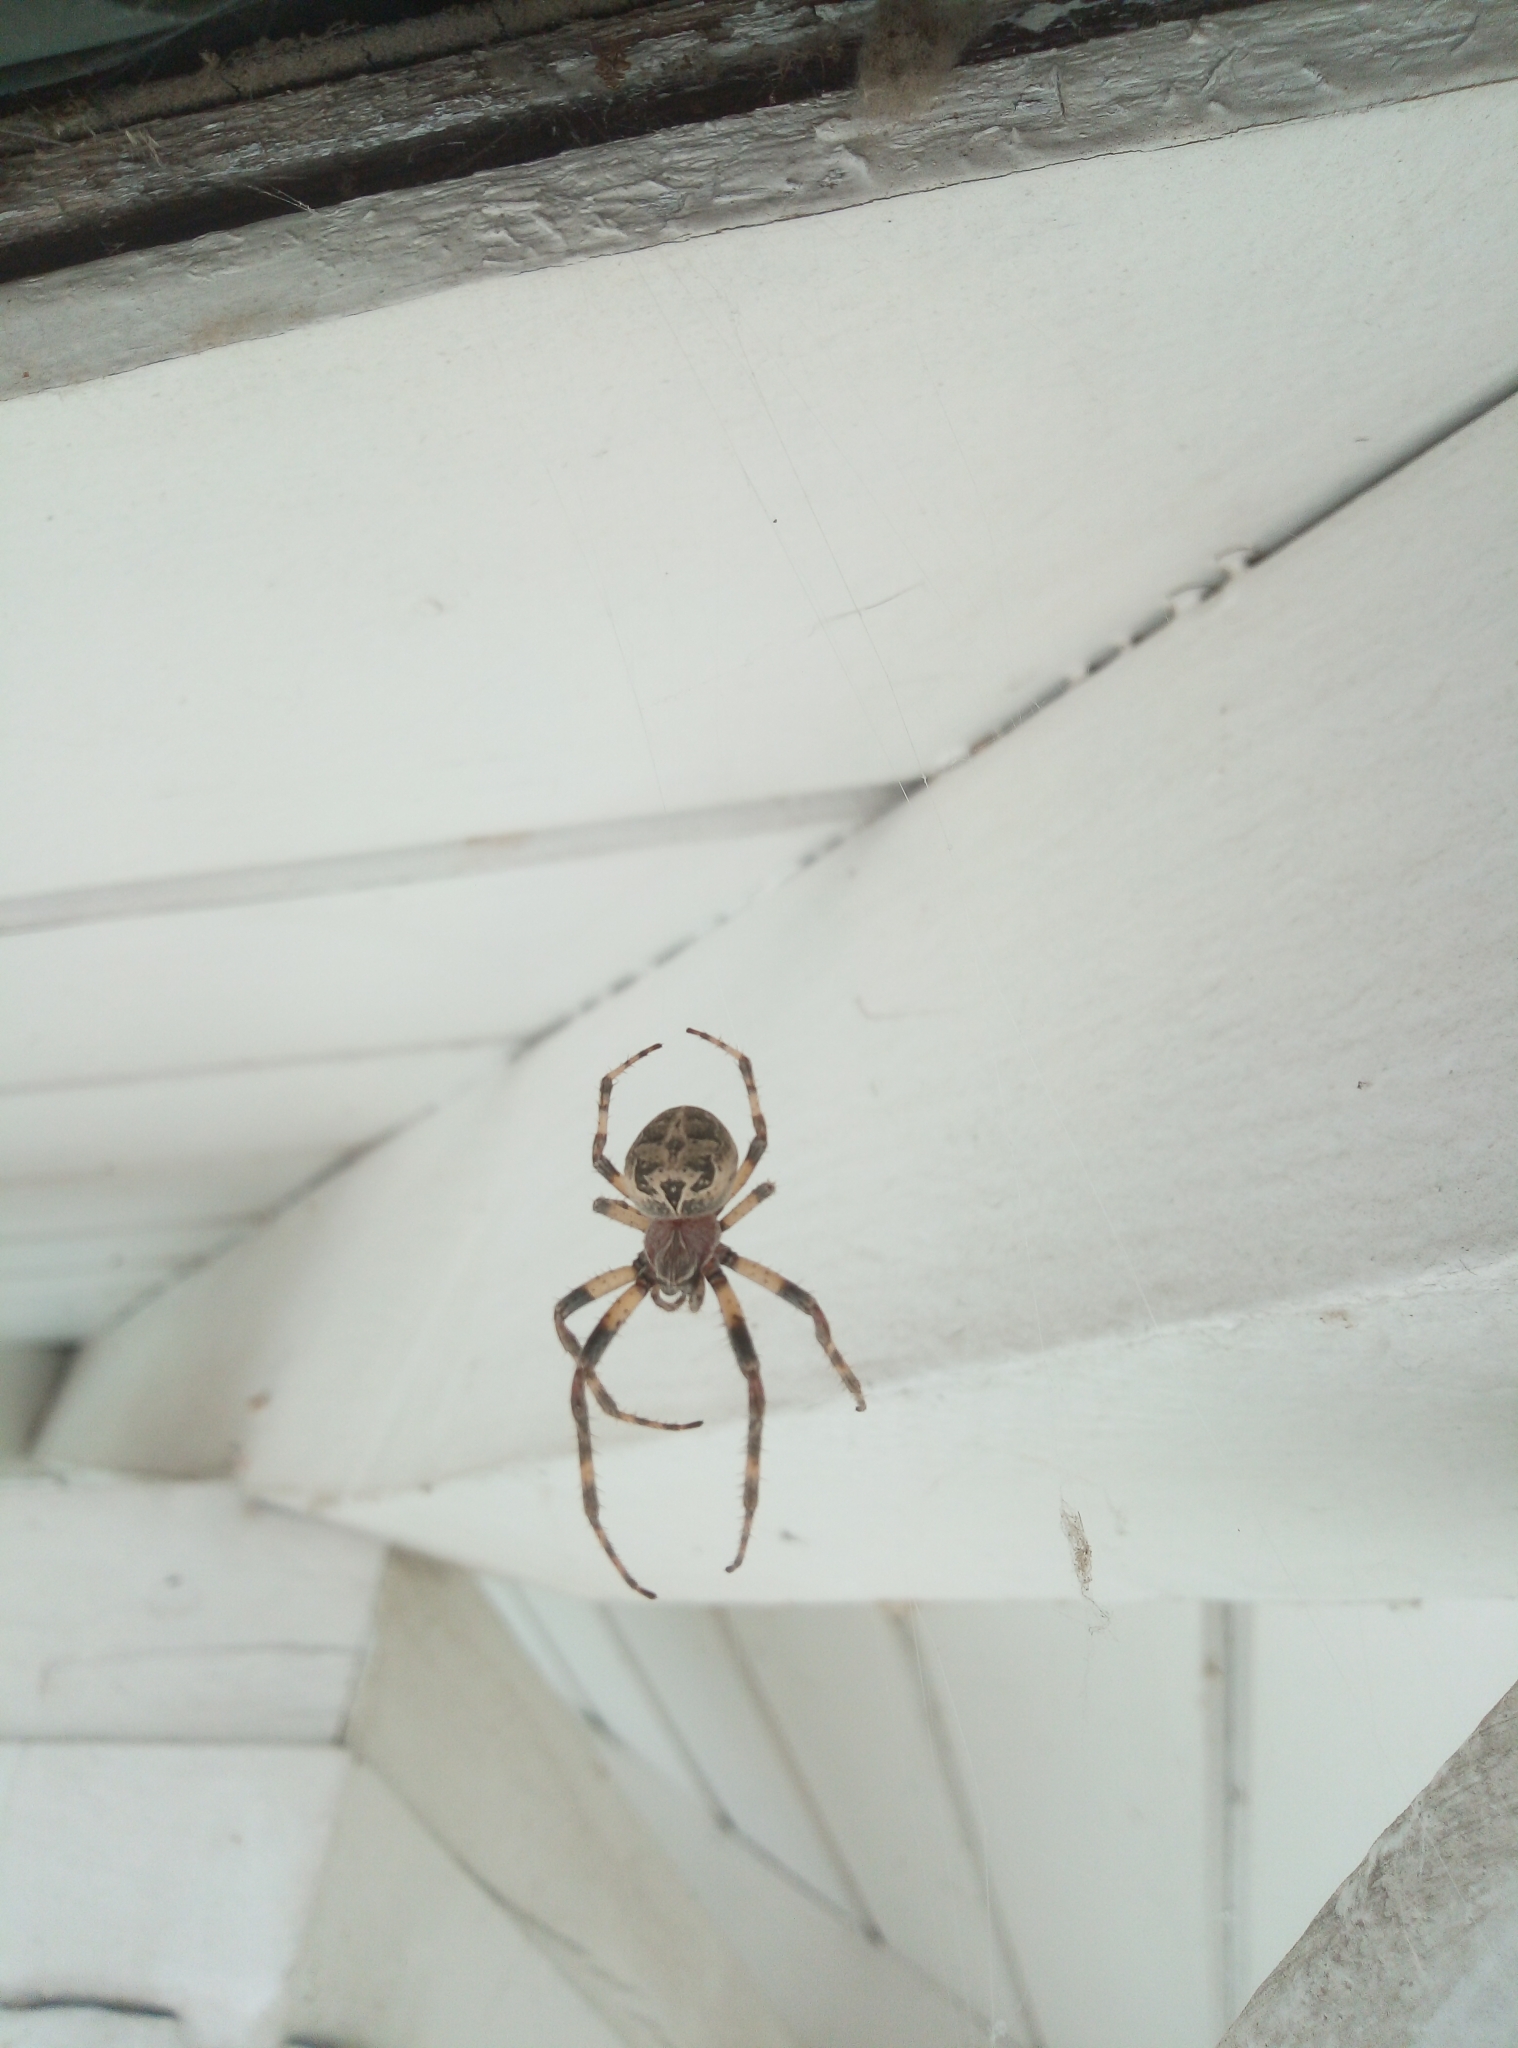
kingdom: Animalia
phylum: Arthropoda
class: Arachnida
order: Araneae
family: Araneidae
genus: Larinioides
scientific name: Larinioides sclopetarius
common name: Bridge orbweaver
